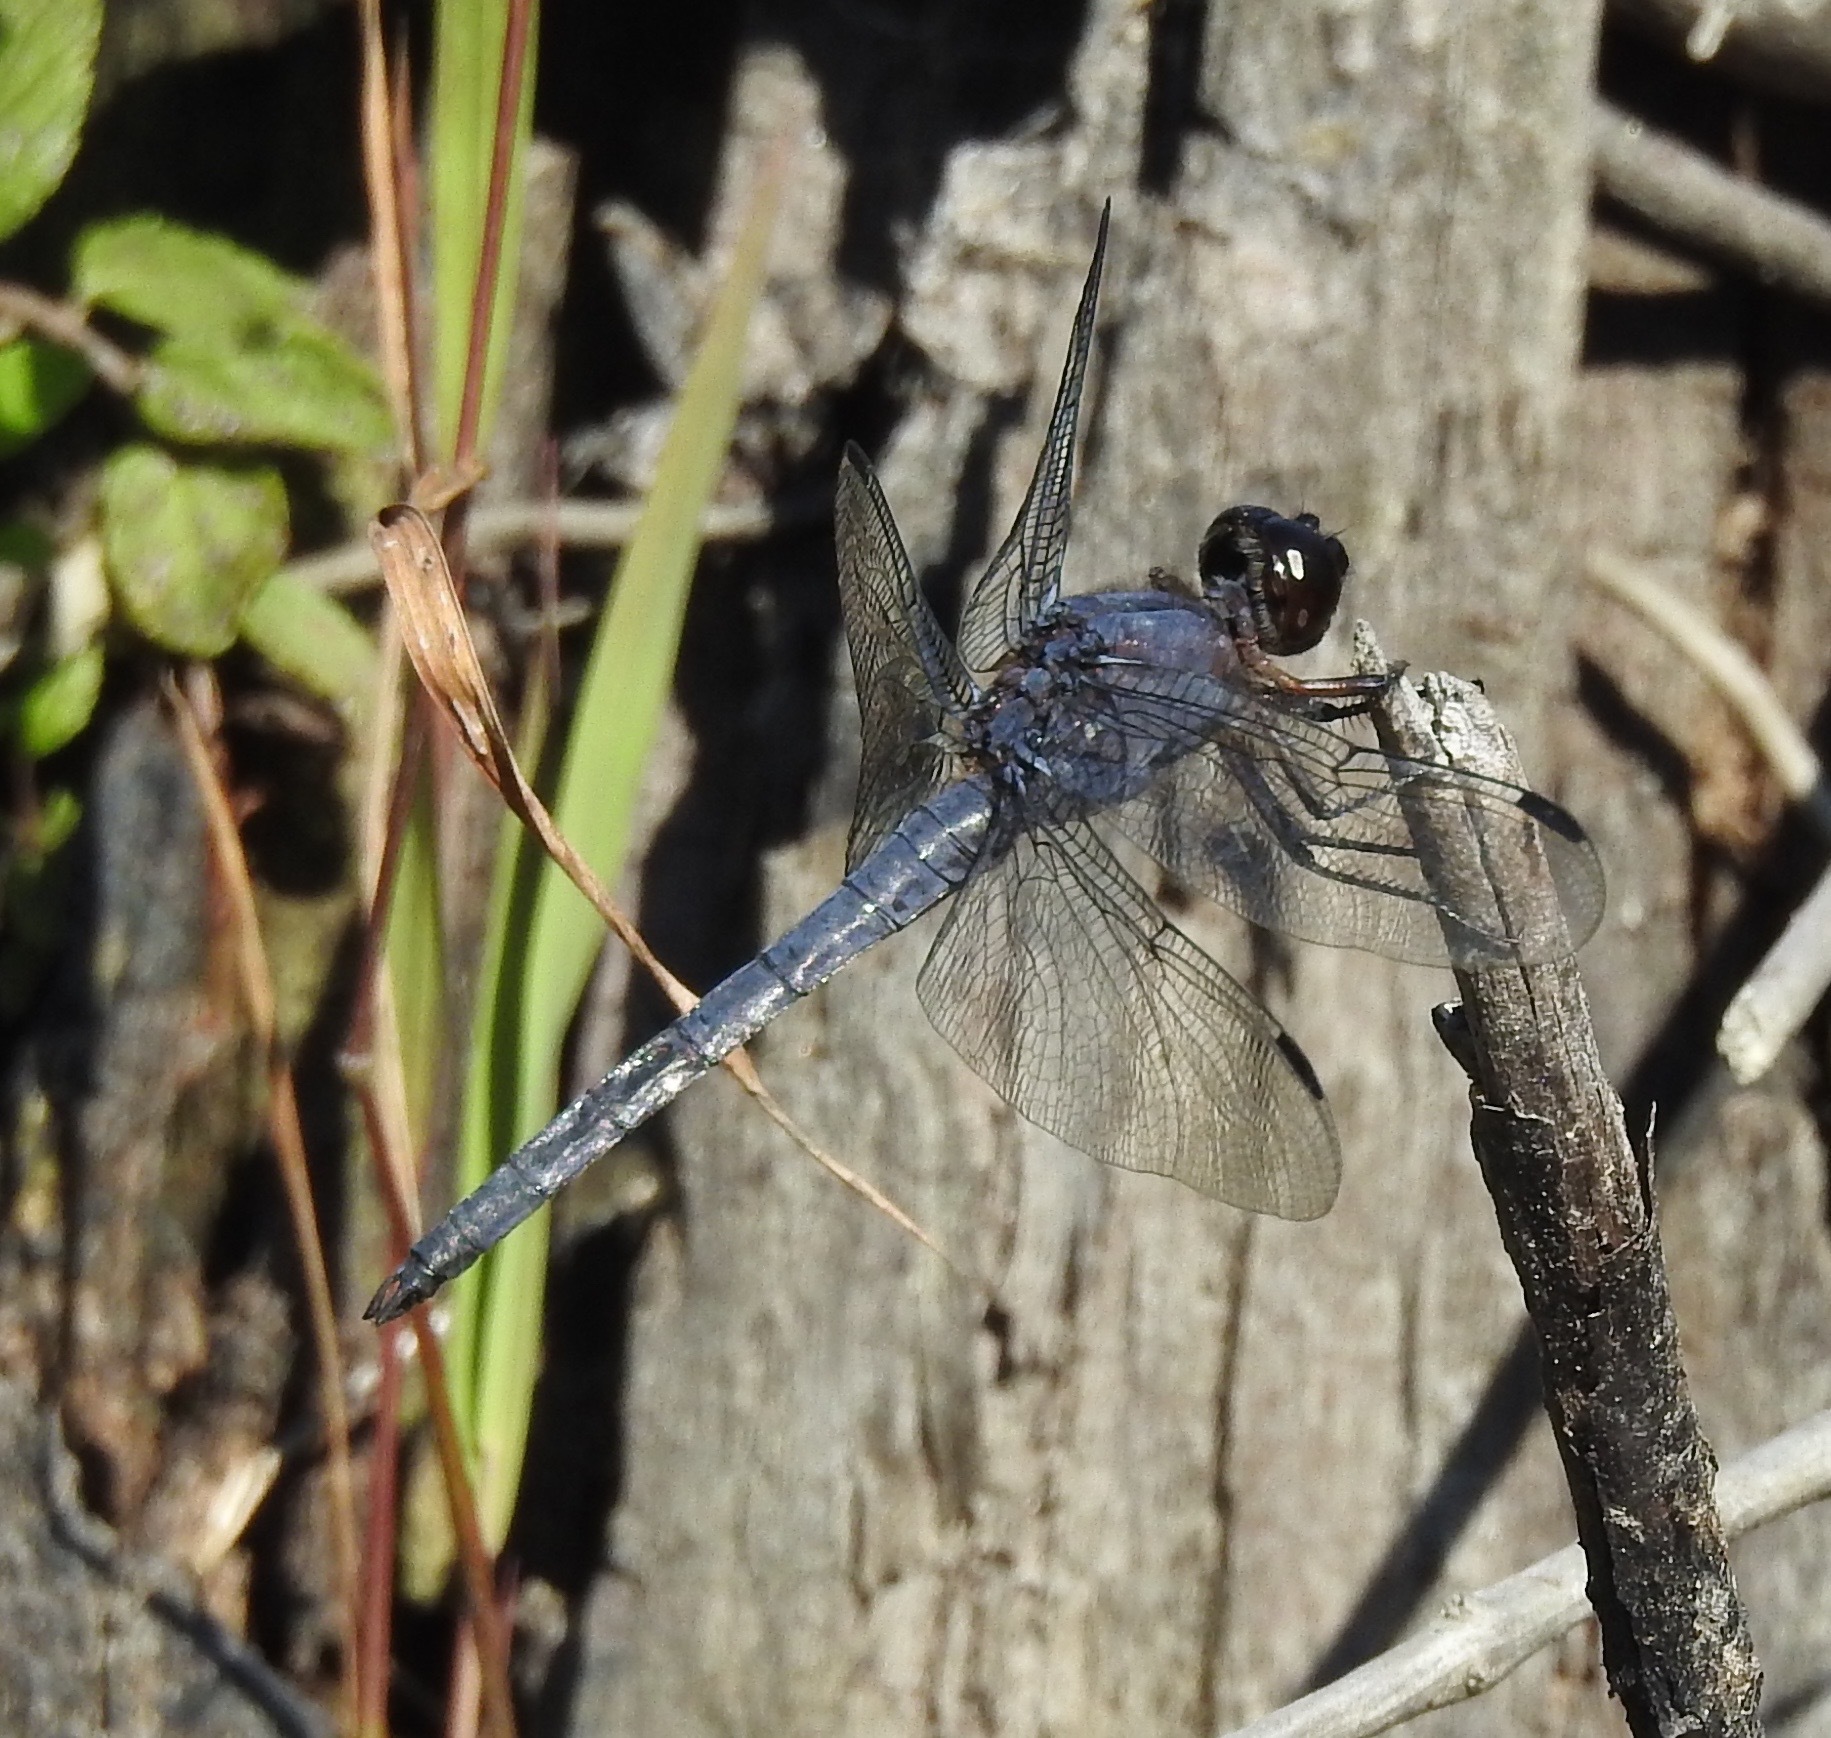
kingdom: Animalia
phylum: Arthropoda
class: Insecta
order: Odonata
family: Libellulidae
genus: Libellula
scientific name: Libellula incesta
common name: Slaty skimmer
